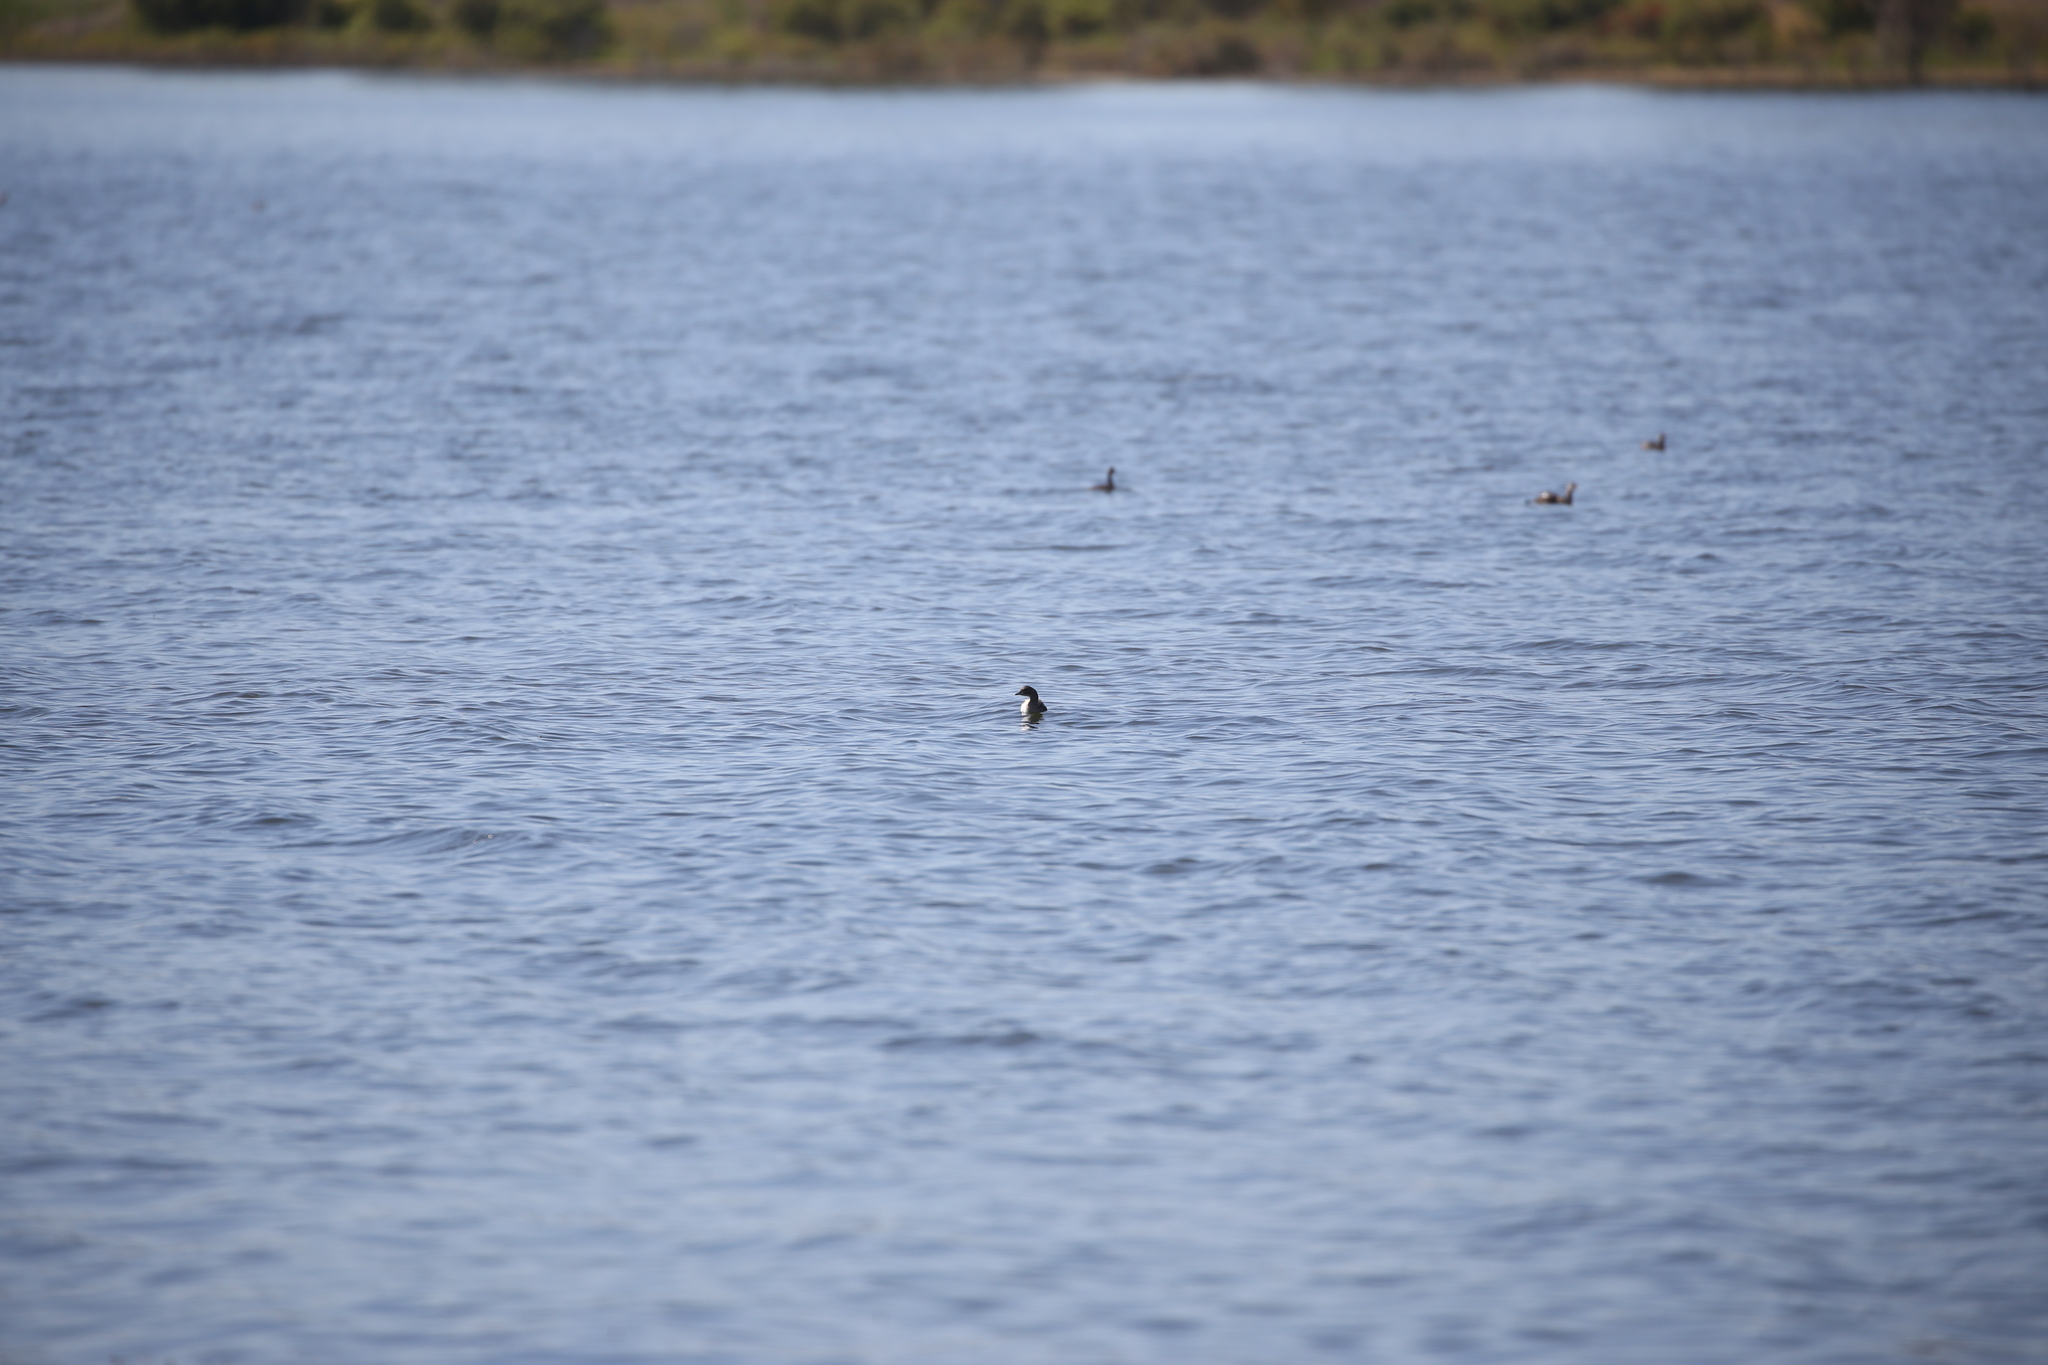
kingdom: Animalia
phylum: Chordata
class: Aves
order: Podicipediformes
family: Podicipedidae
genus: Tachybaptus
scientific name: Tachybaptus novaehollandiae
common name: Australasian grebe
